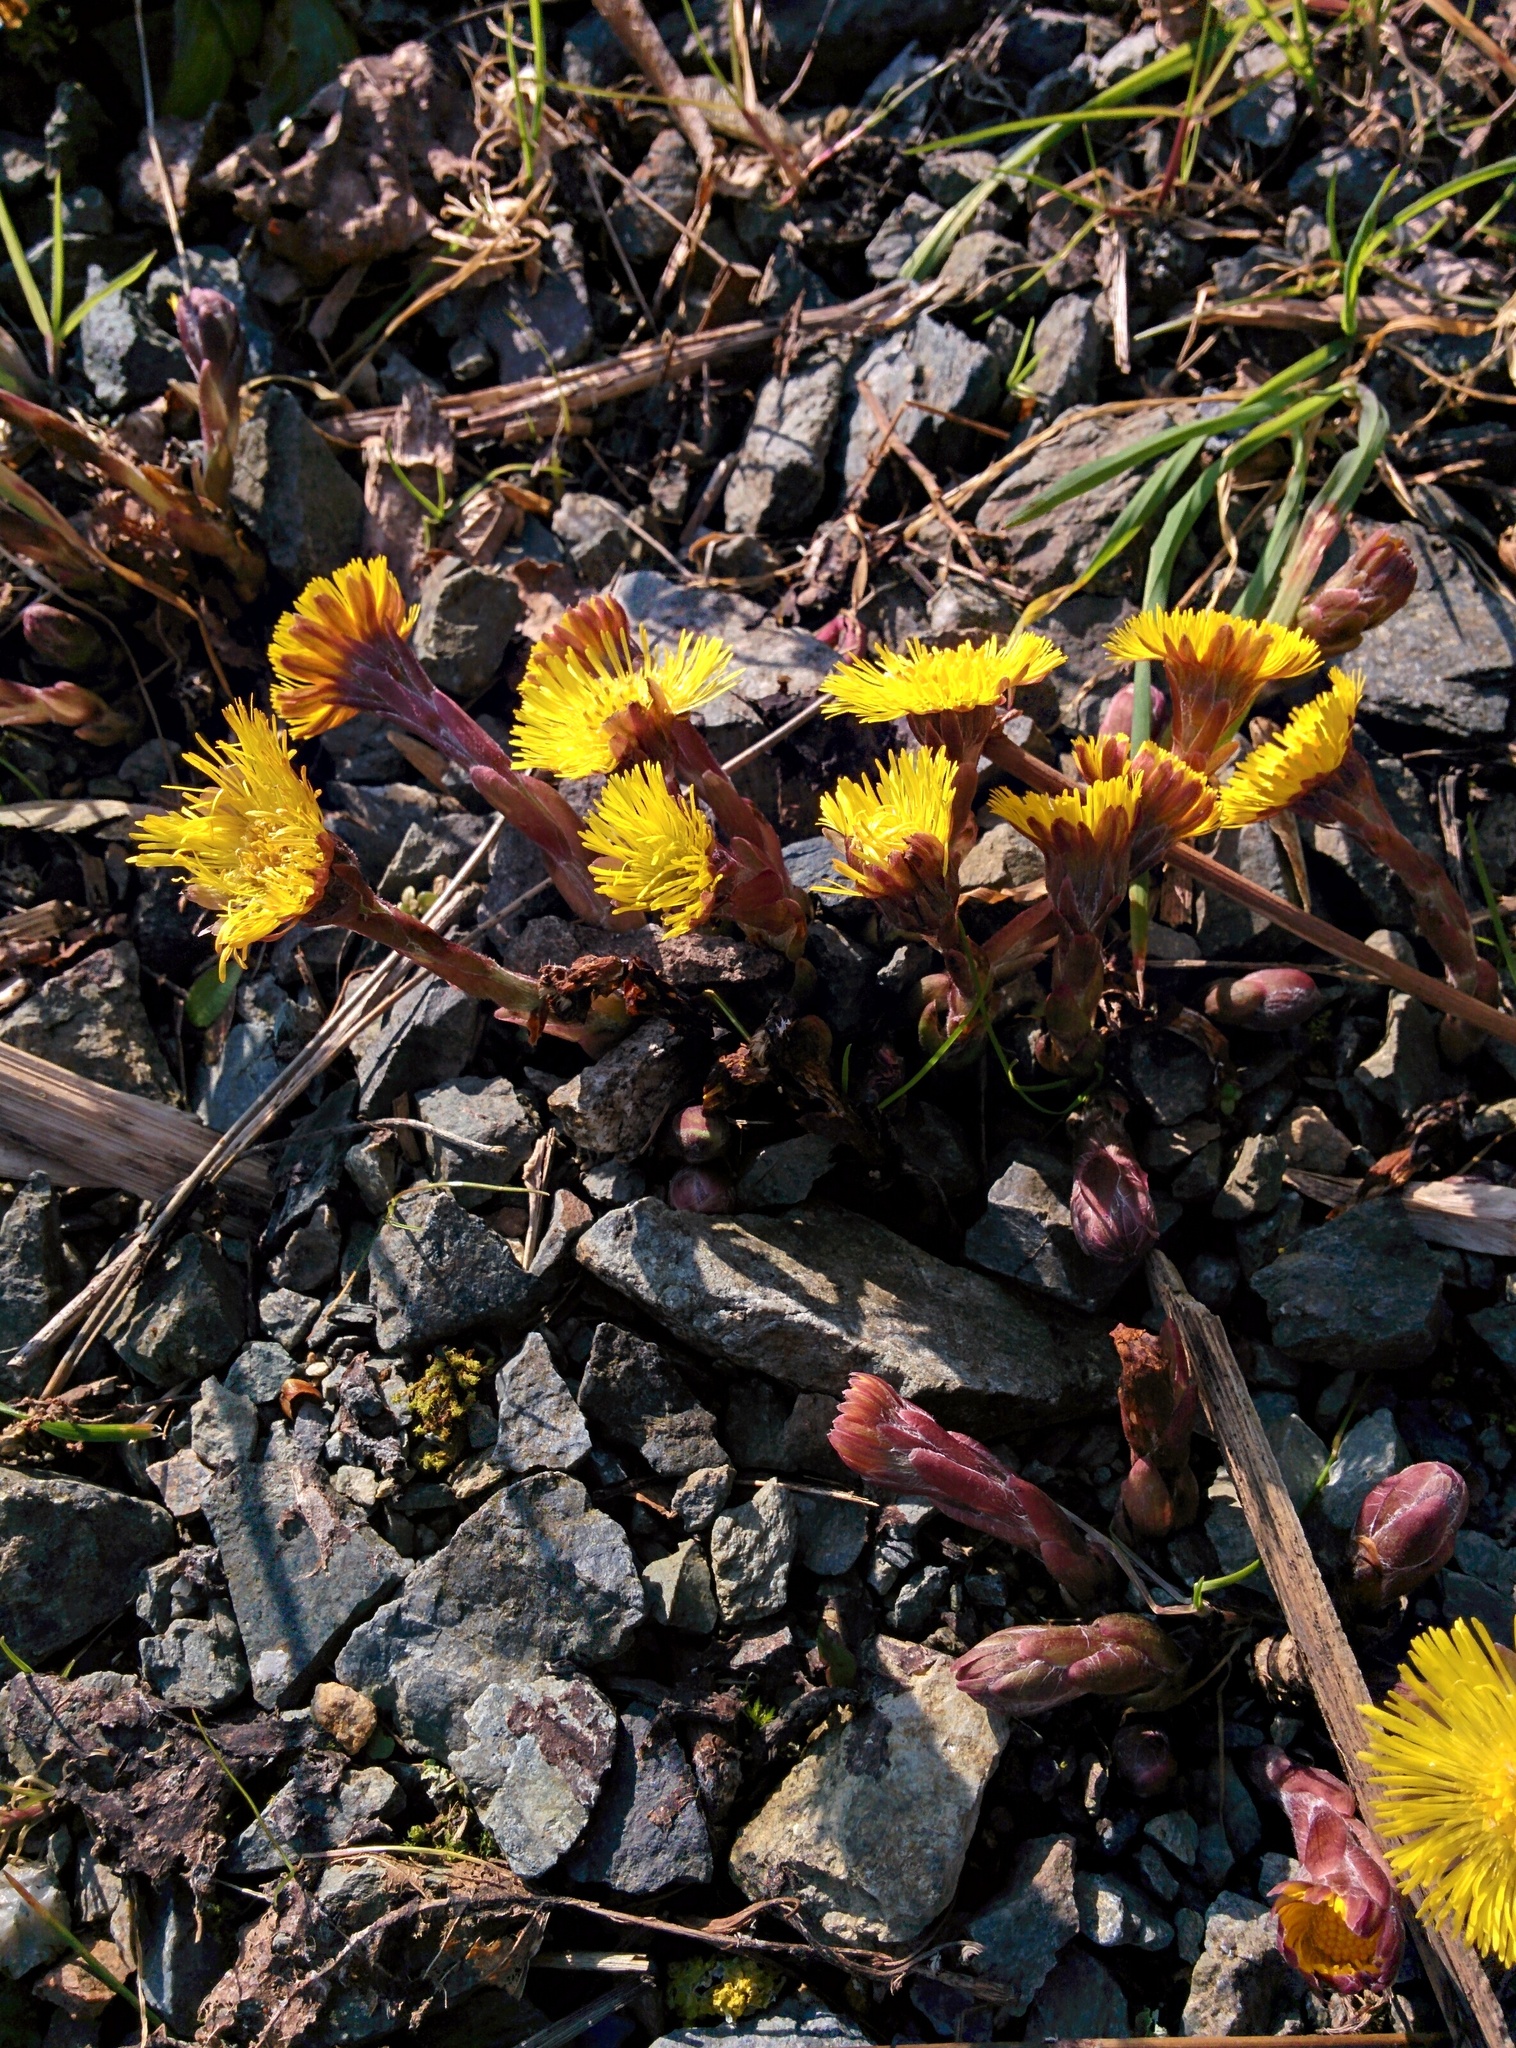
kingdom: Plantae
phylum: Tracheophyta
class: Magnoliopsida
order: Asterales
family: Asteraceae
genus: Tussilago
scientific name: Tussilago farfara
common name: Coltsfoot
